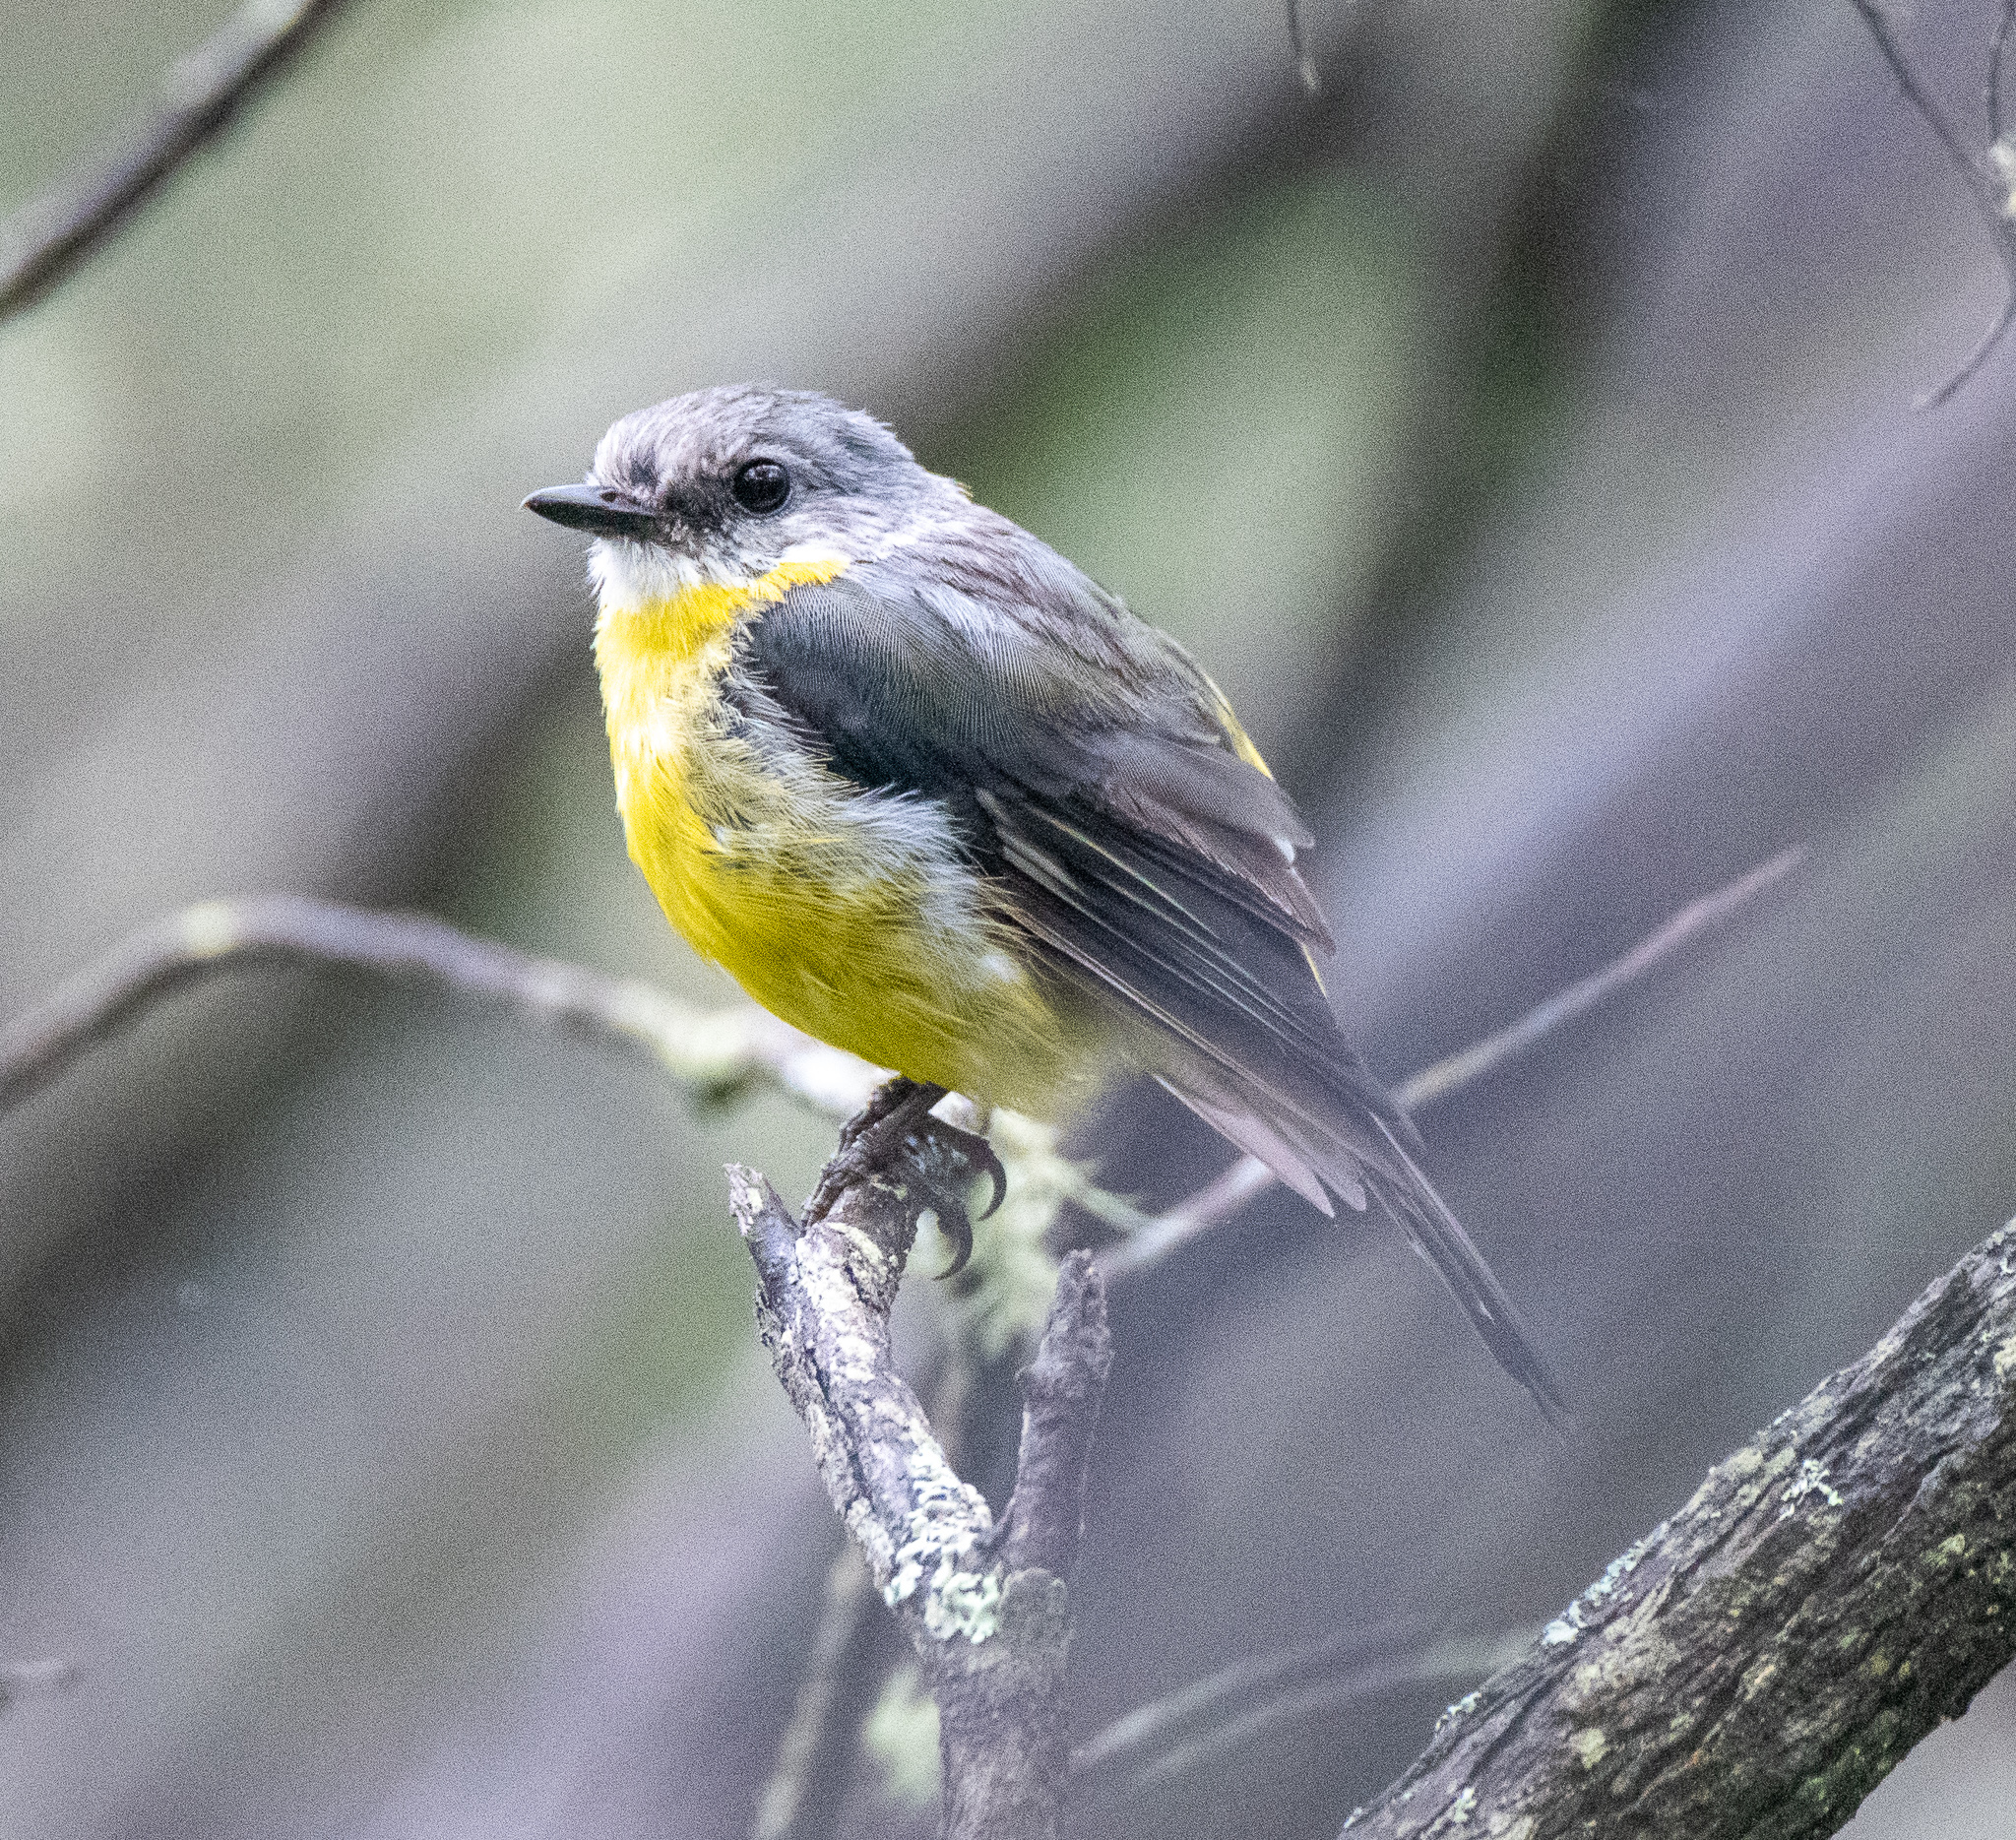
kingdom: Animalia
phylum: Chordata
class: Aves
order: Passeriformes
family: Petroicidae
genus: Eopsaltria
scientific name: Eopsaltria australis
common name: Eastern yellow robin
